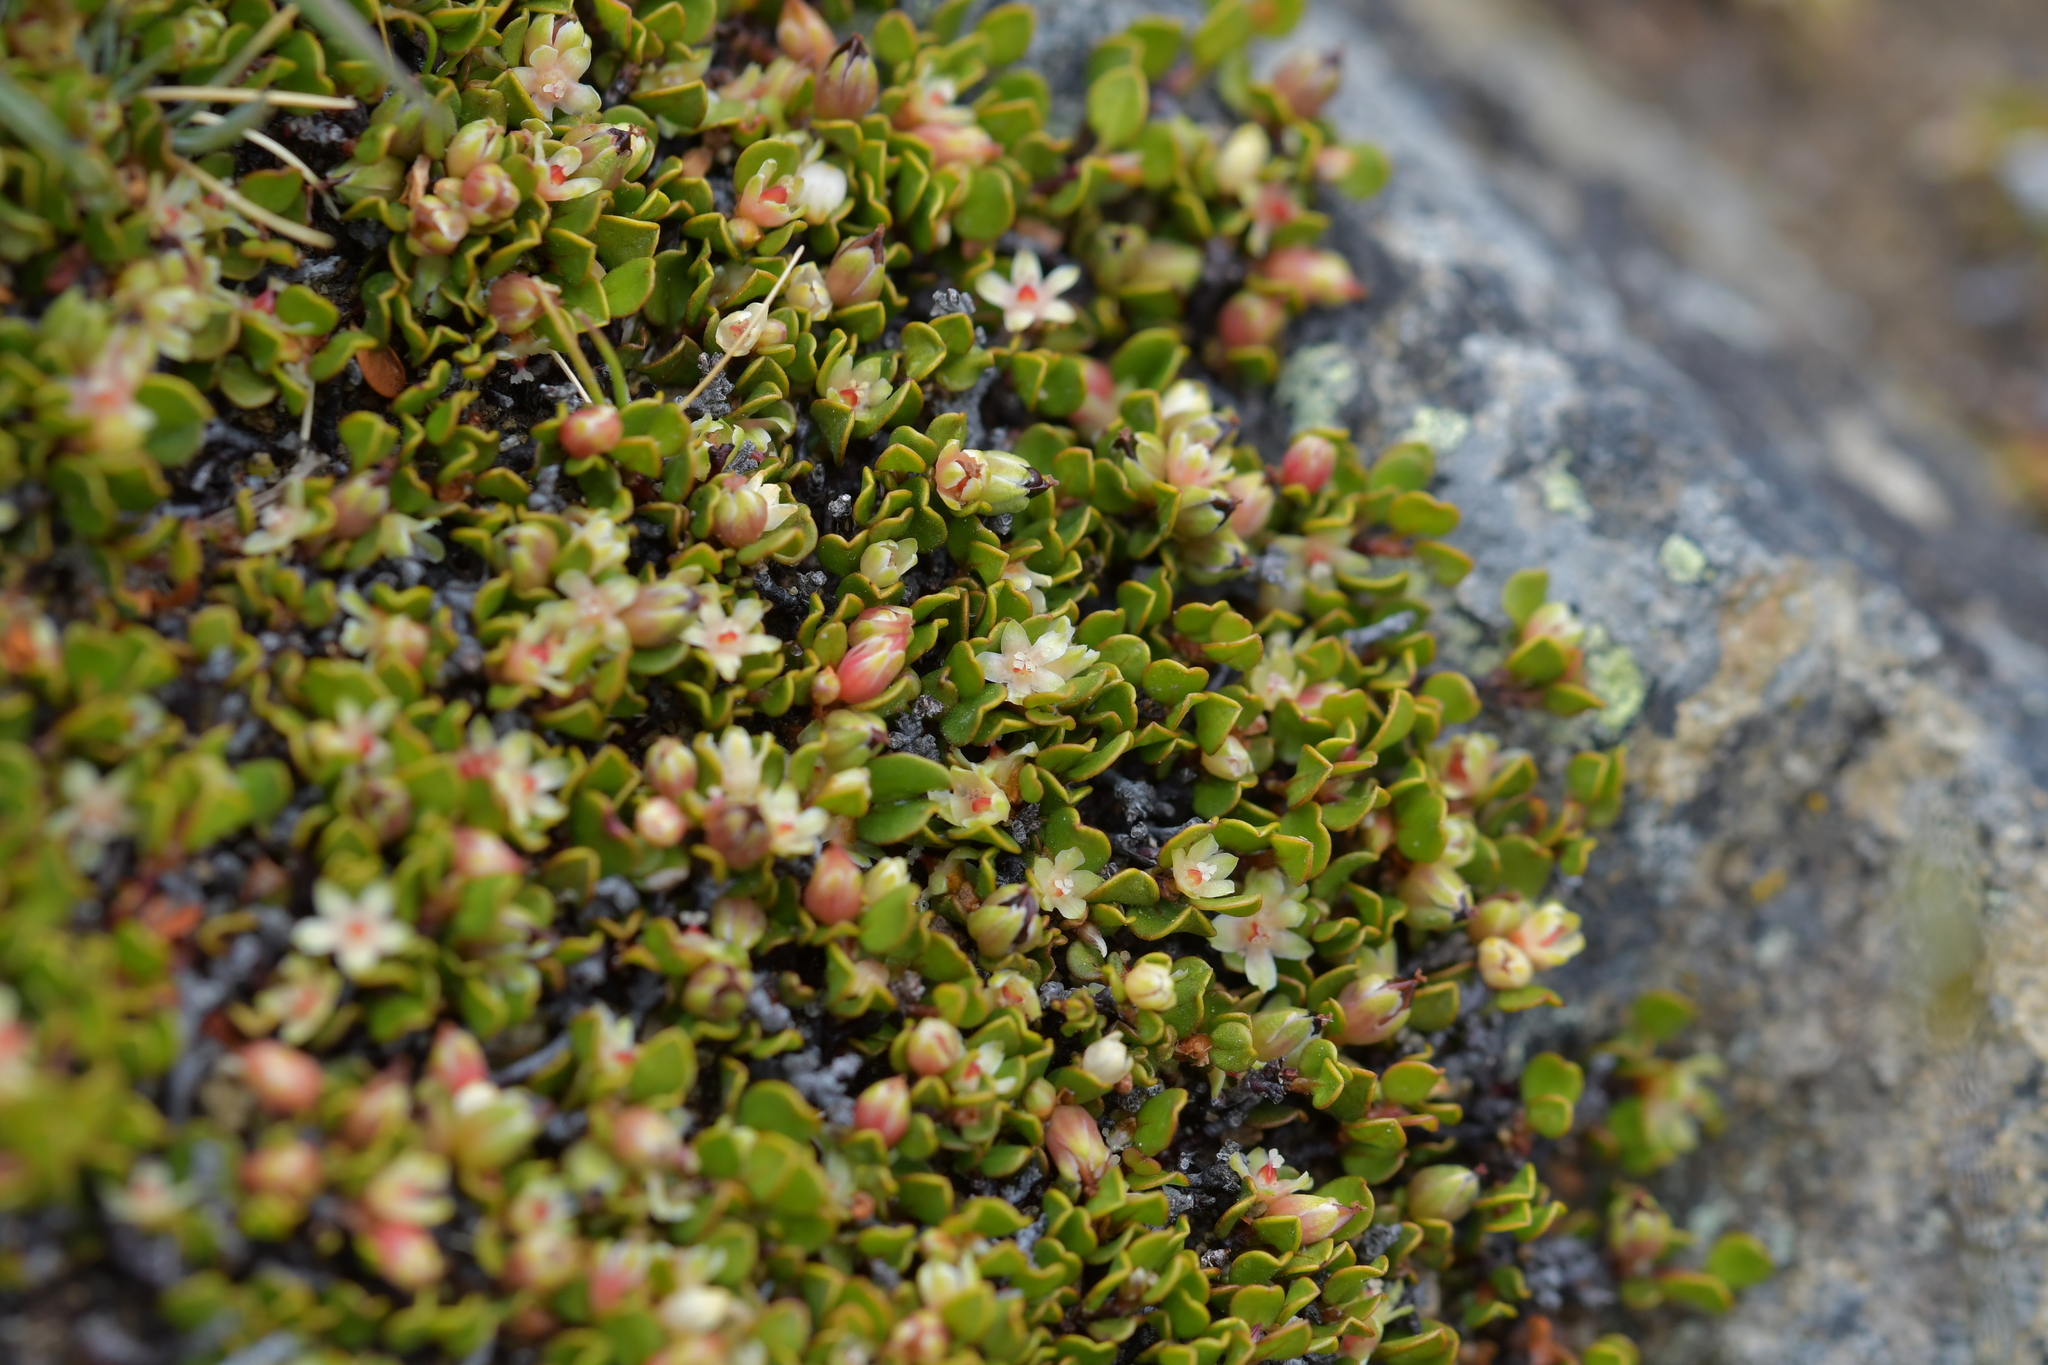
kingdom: Plantae
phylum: Tracheophyta
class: Magnoliopsida
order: Caryophyllales
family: Polygonaceae
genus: Muehlenbeckia
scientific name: Muehlenbeckia axillaris
